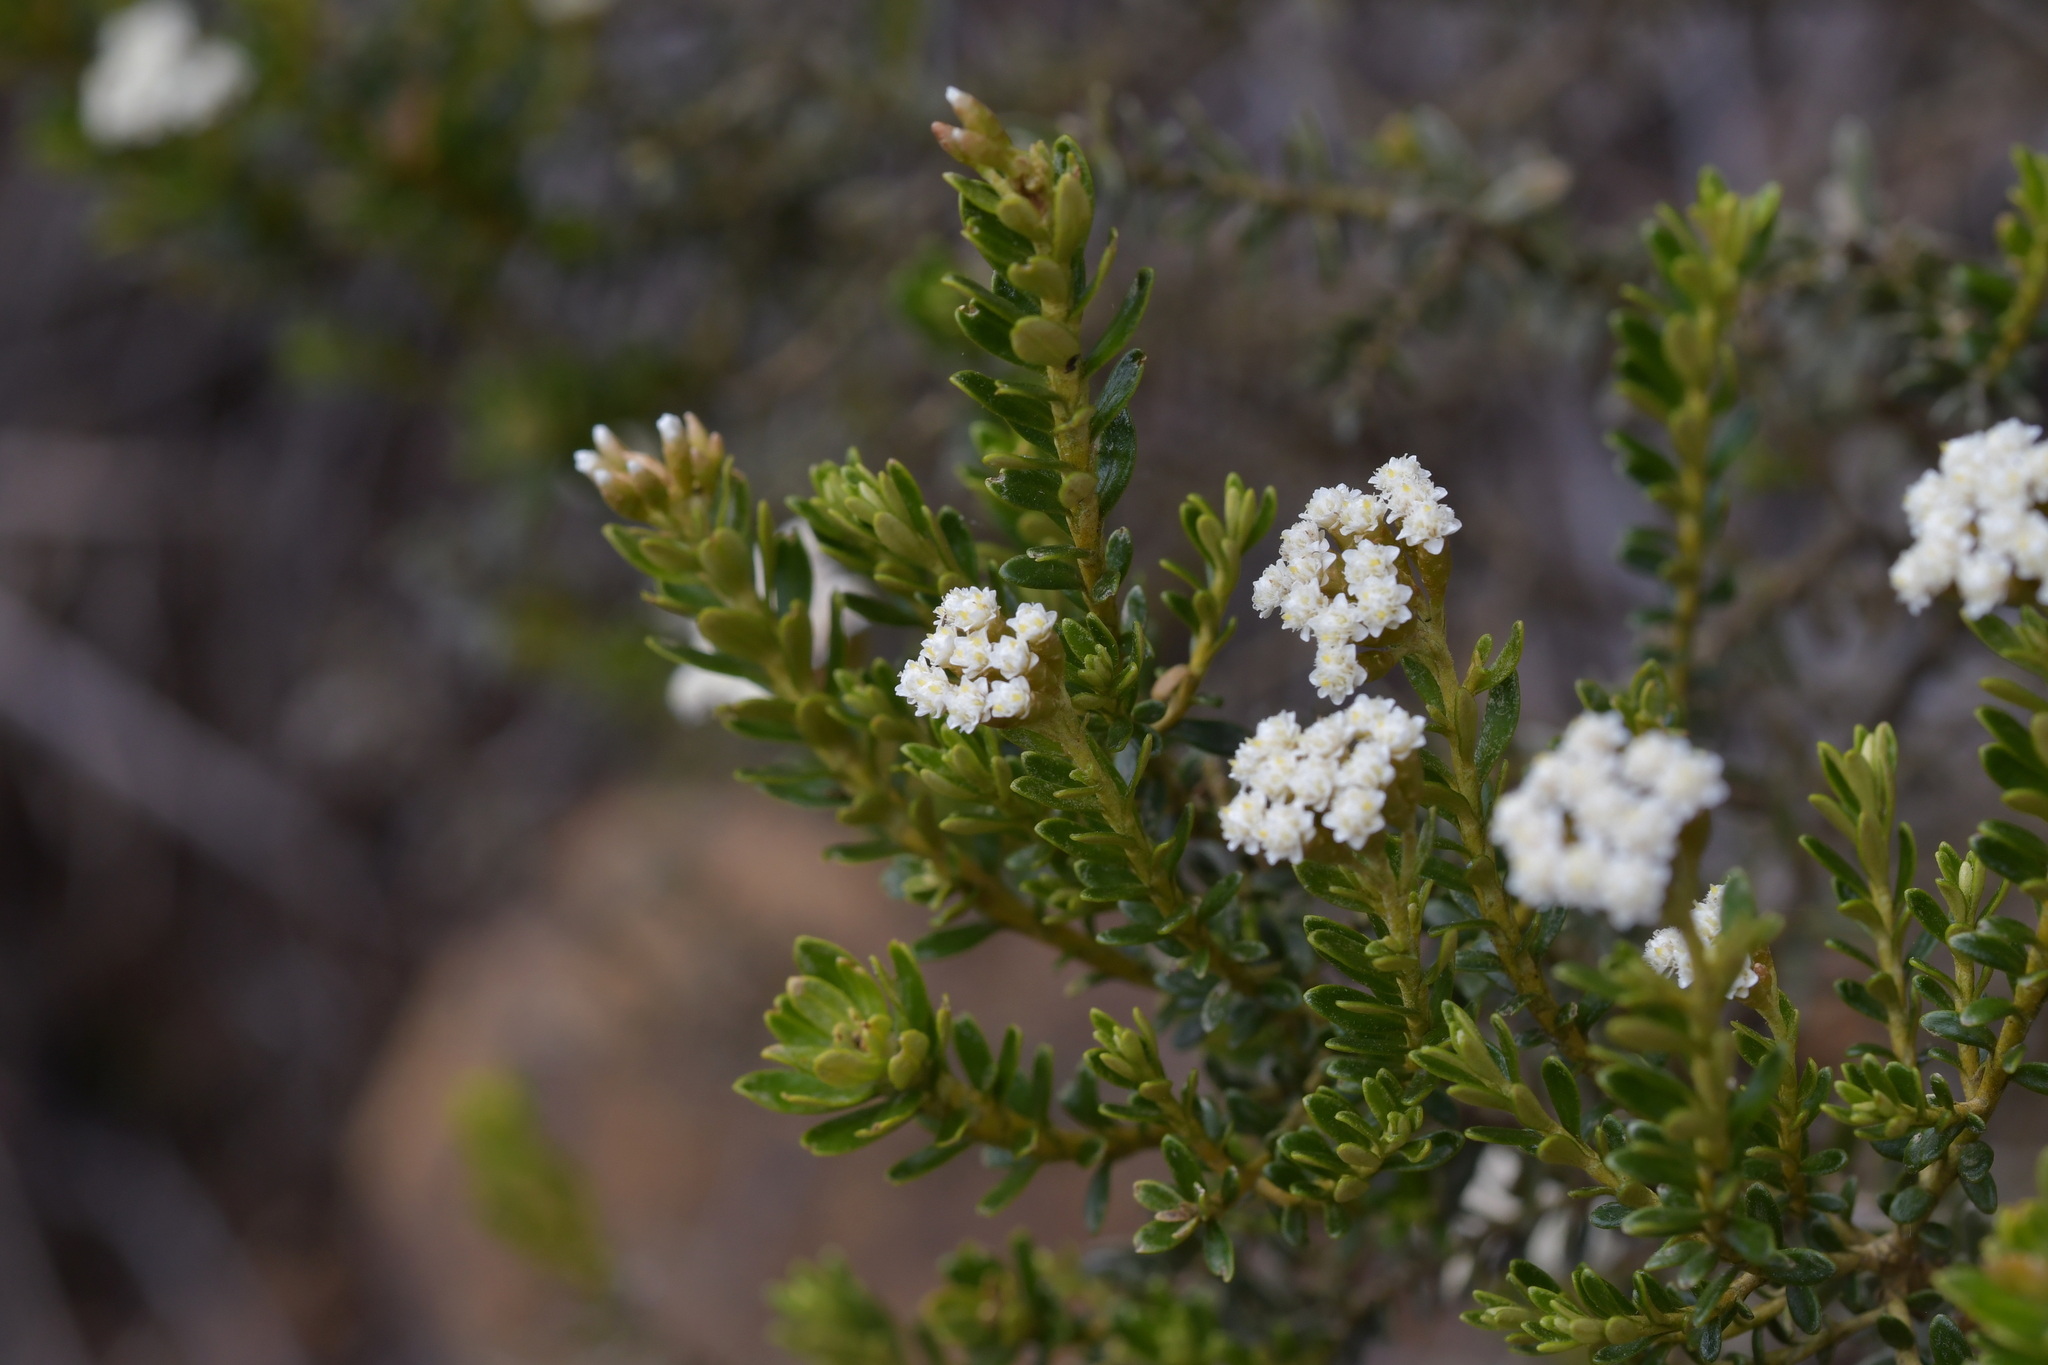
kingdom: Plantae
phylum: Tracheophyta
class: Magnoliopsida
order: Asterales
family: Asteraceae
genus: Ozothamnus
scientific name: Ozothamnus leptophyllus
